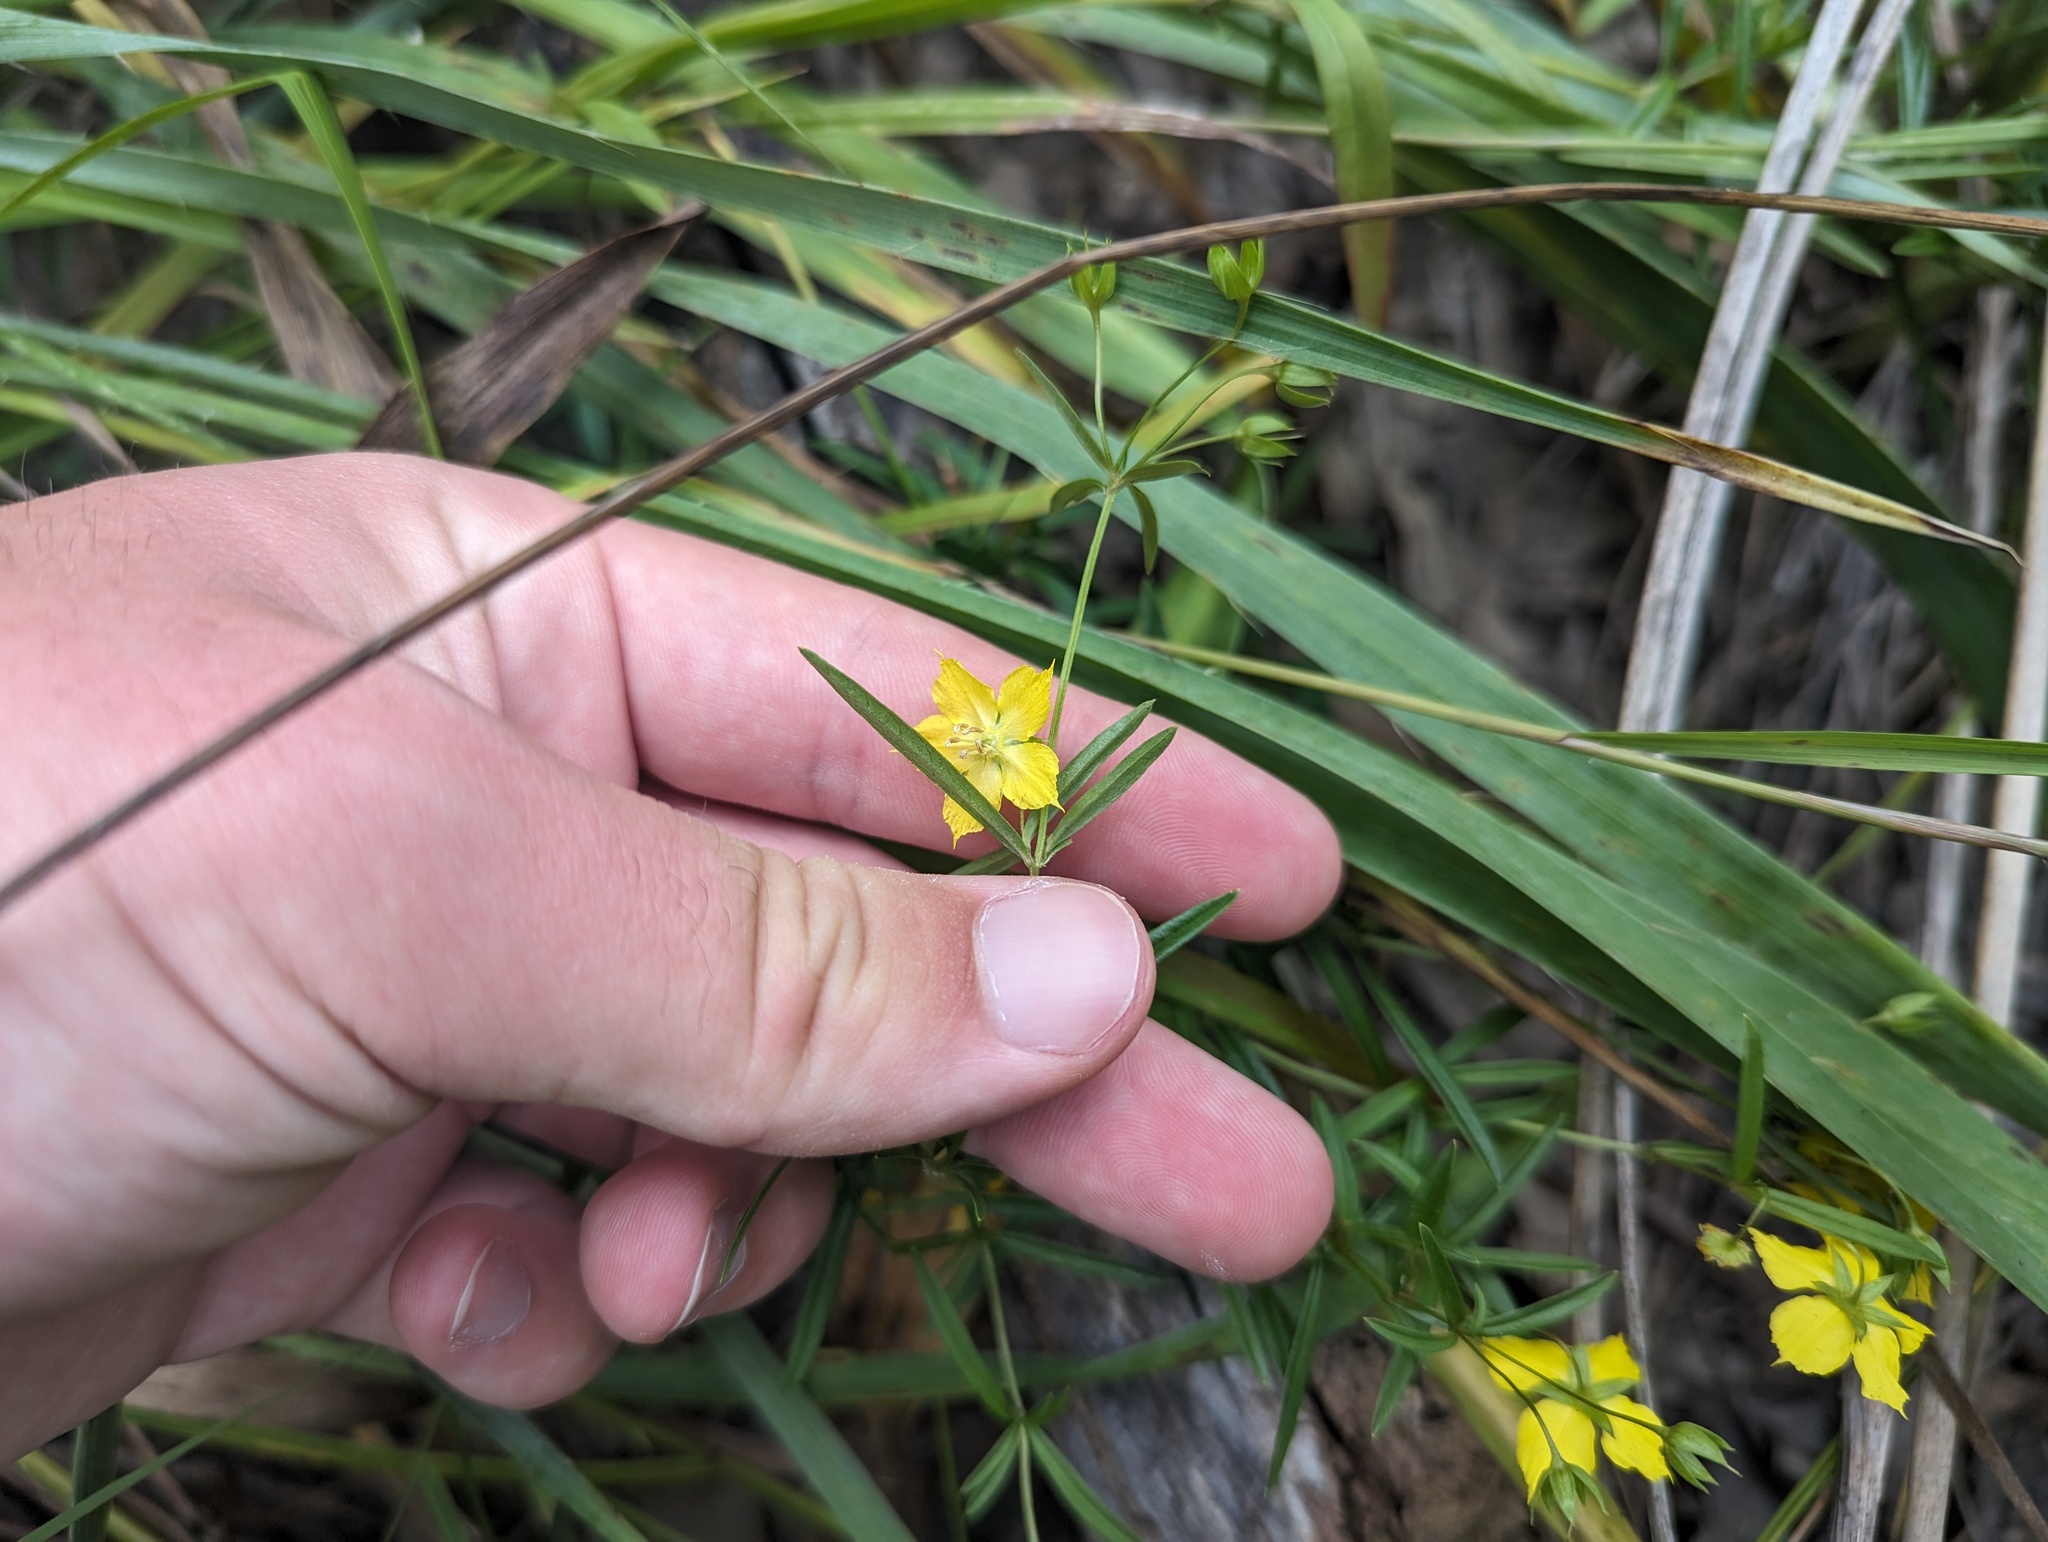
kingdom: Plantae
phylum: Tracheophyta
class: Magnoliopsida
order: Ericales
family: Primulaceae
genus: Lysimachia
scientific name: Lysimachia quadriflora
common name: Four-flowered loosestrife
